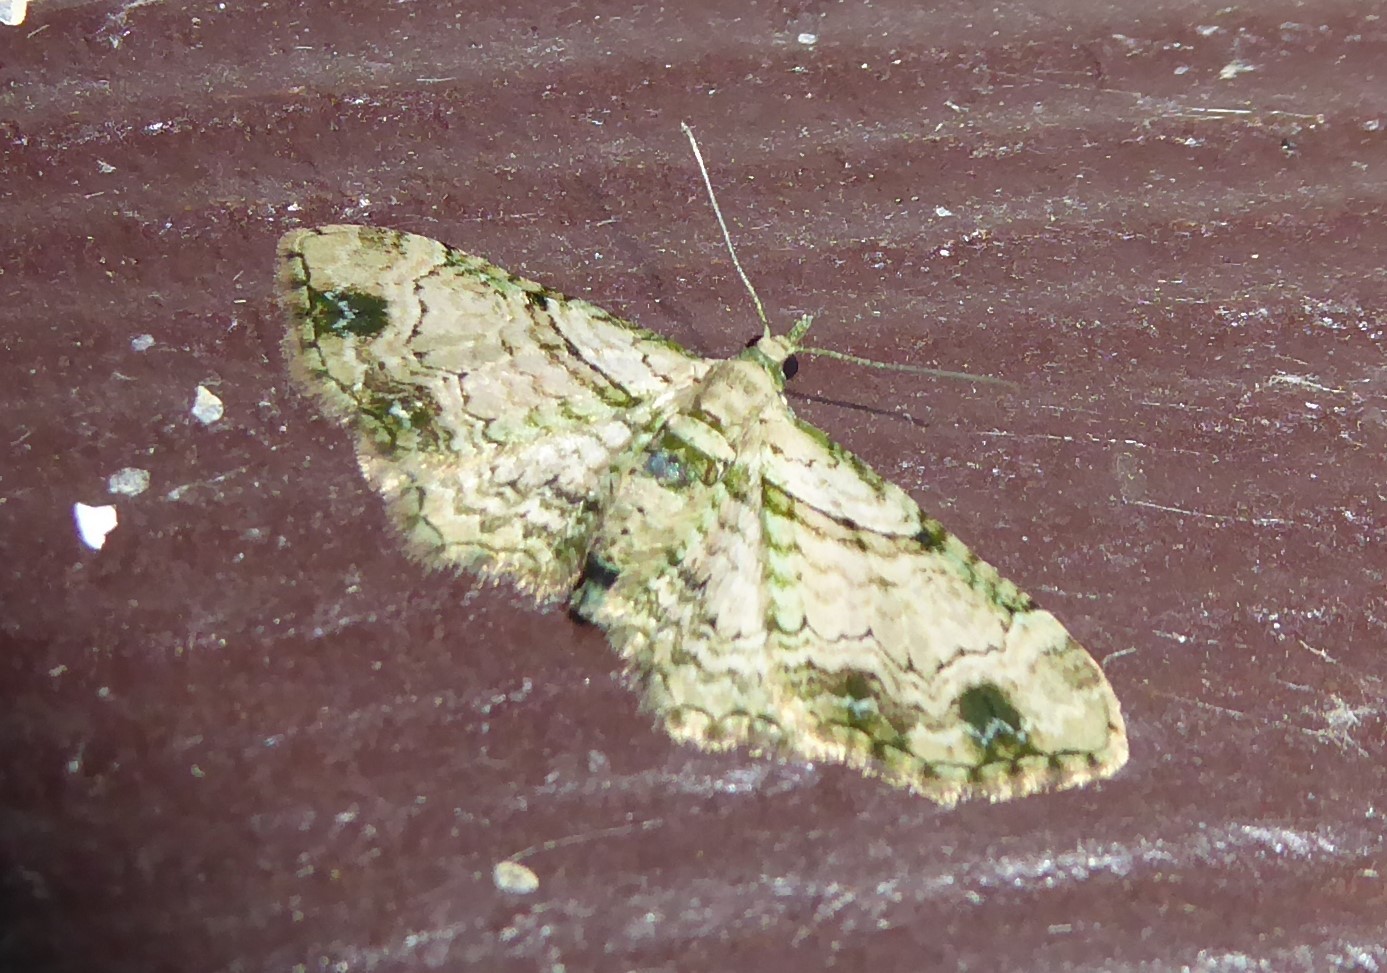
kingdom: Animalia
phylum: Arthropoda
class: Insecta
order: Lepidoptera
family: Geometridae
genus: Chloroclystis
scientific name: Chloroclystis
